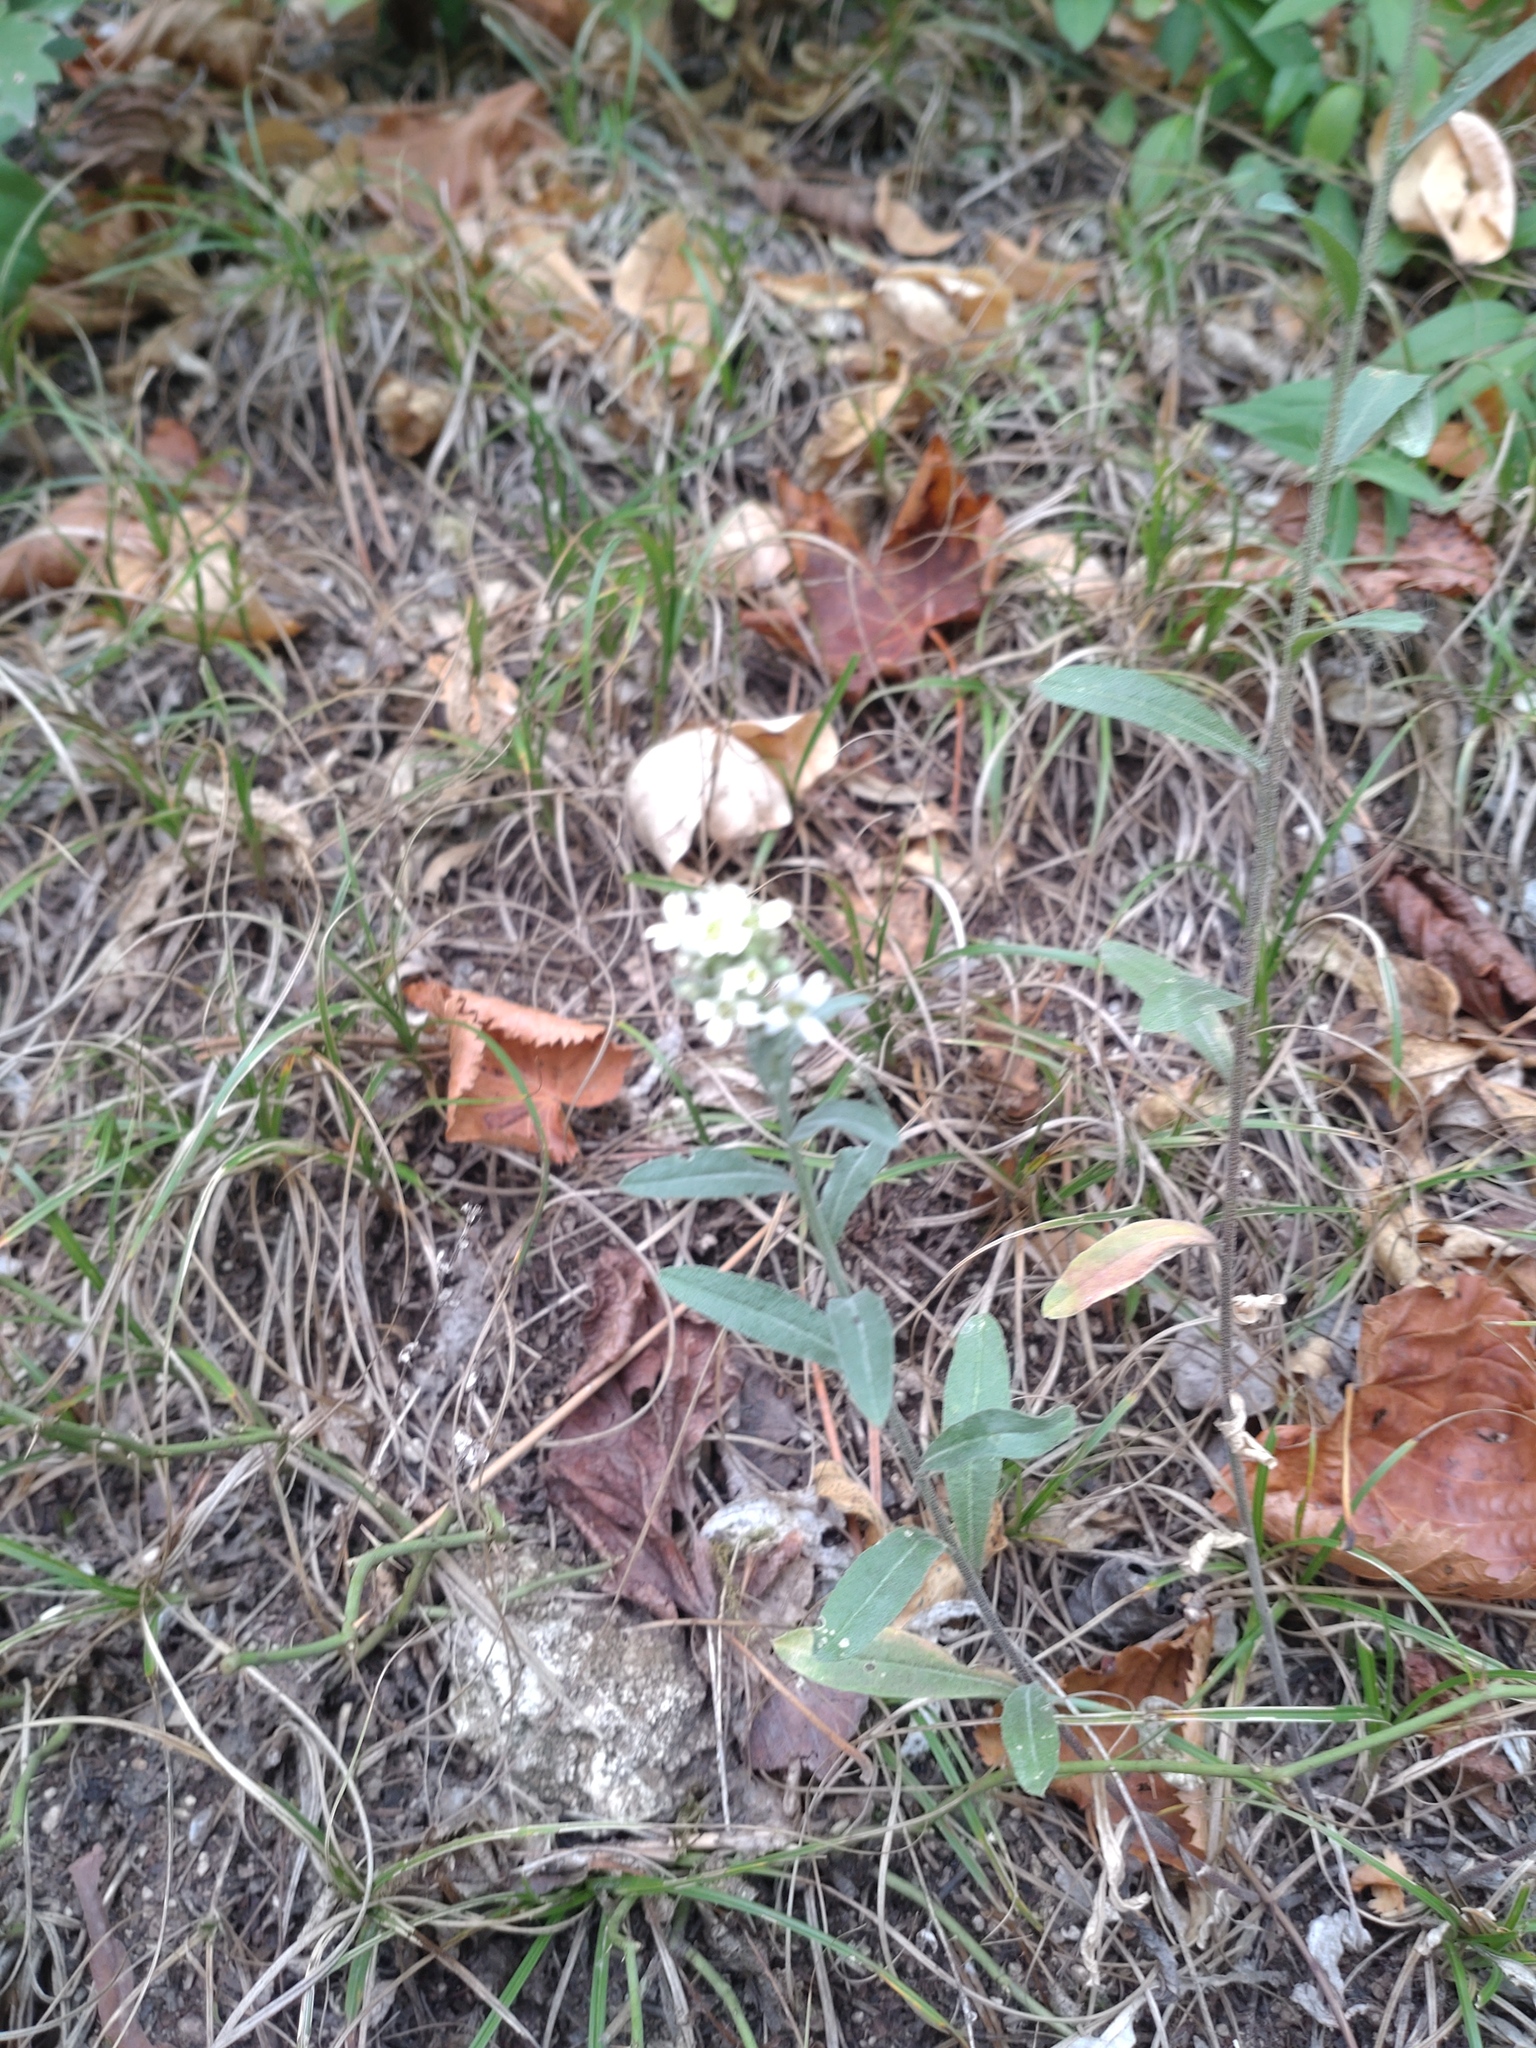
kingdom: Plantae
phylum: Tracheophyta
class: Magnoliopsida
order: Brassicales
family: Brassicaceae
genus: Berteroa
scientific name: Berteroa incana
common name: Hoary alison
